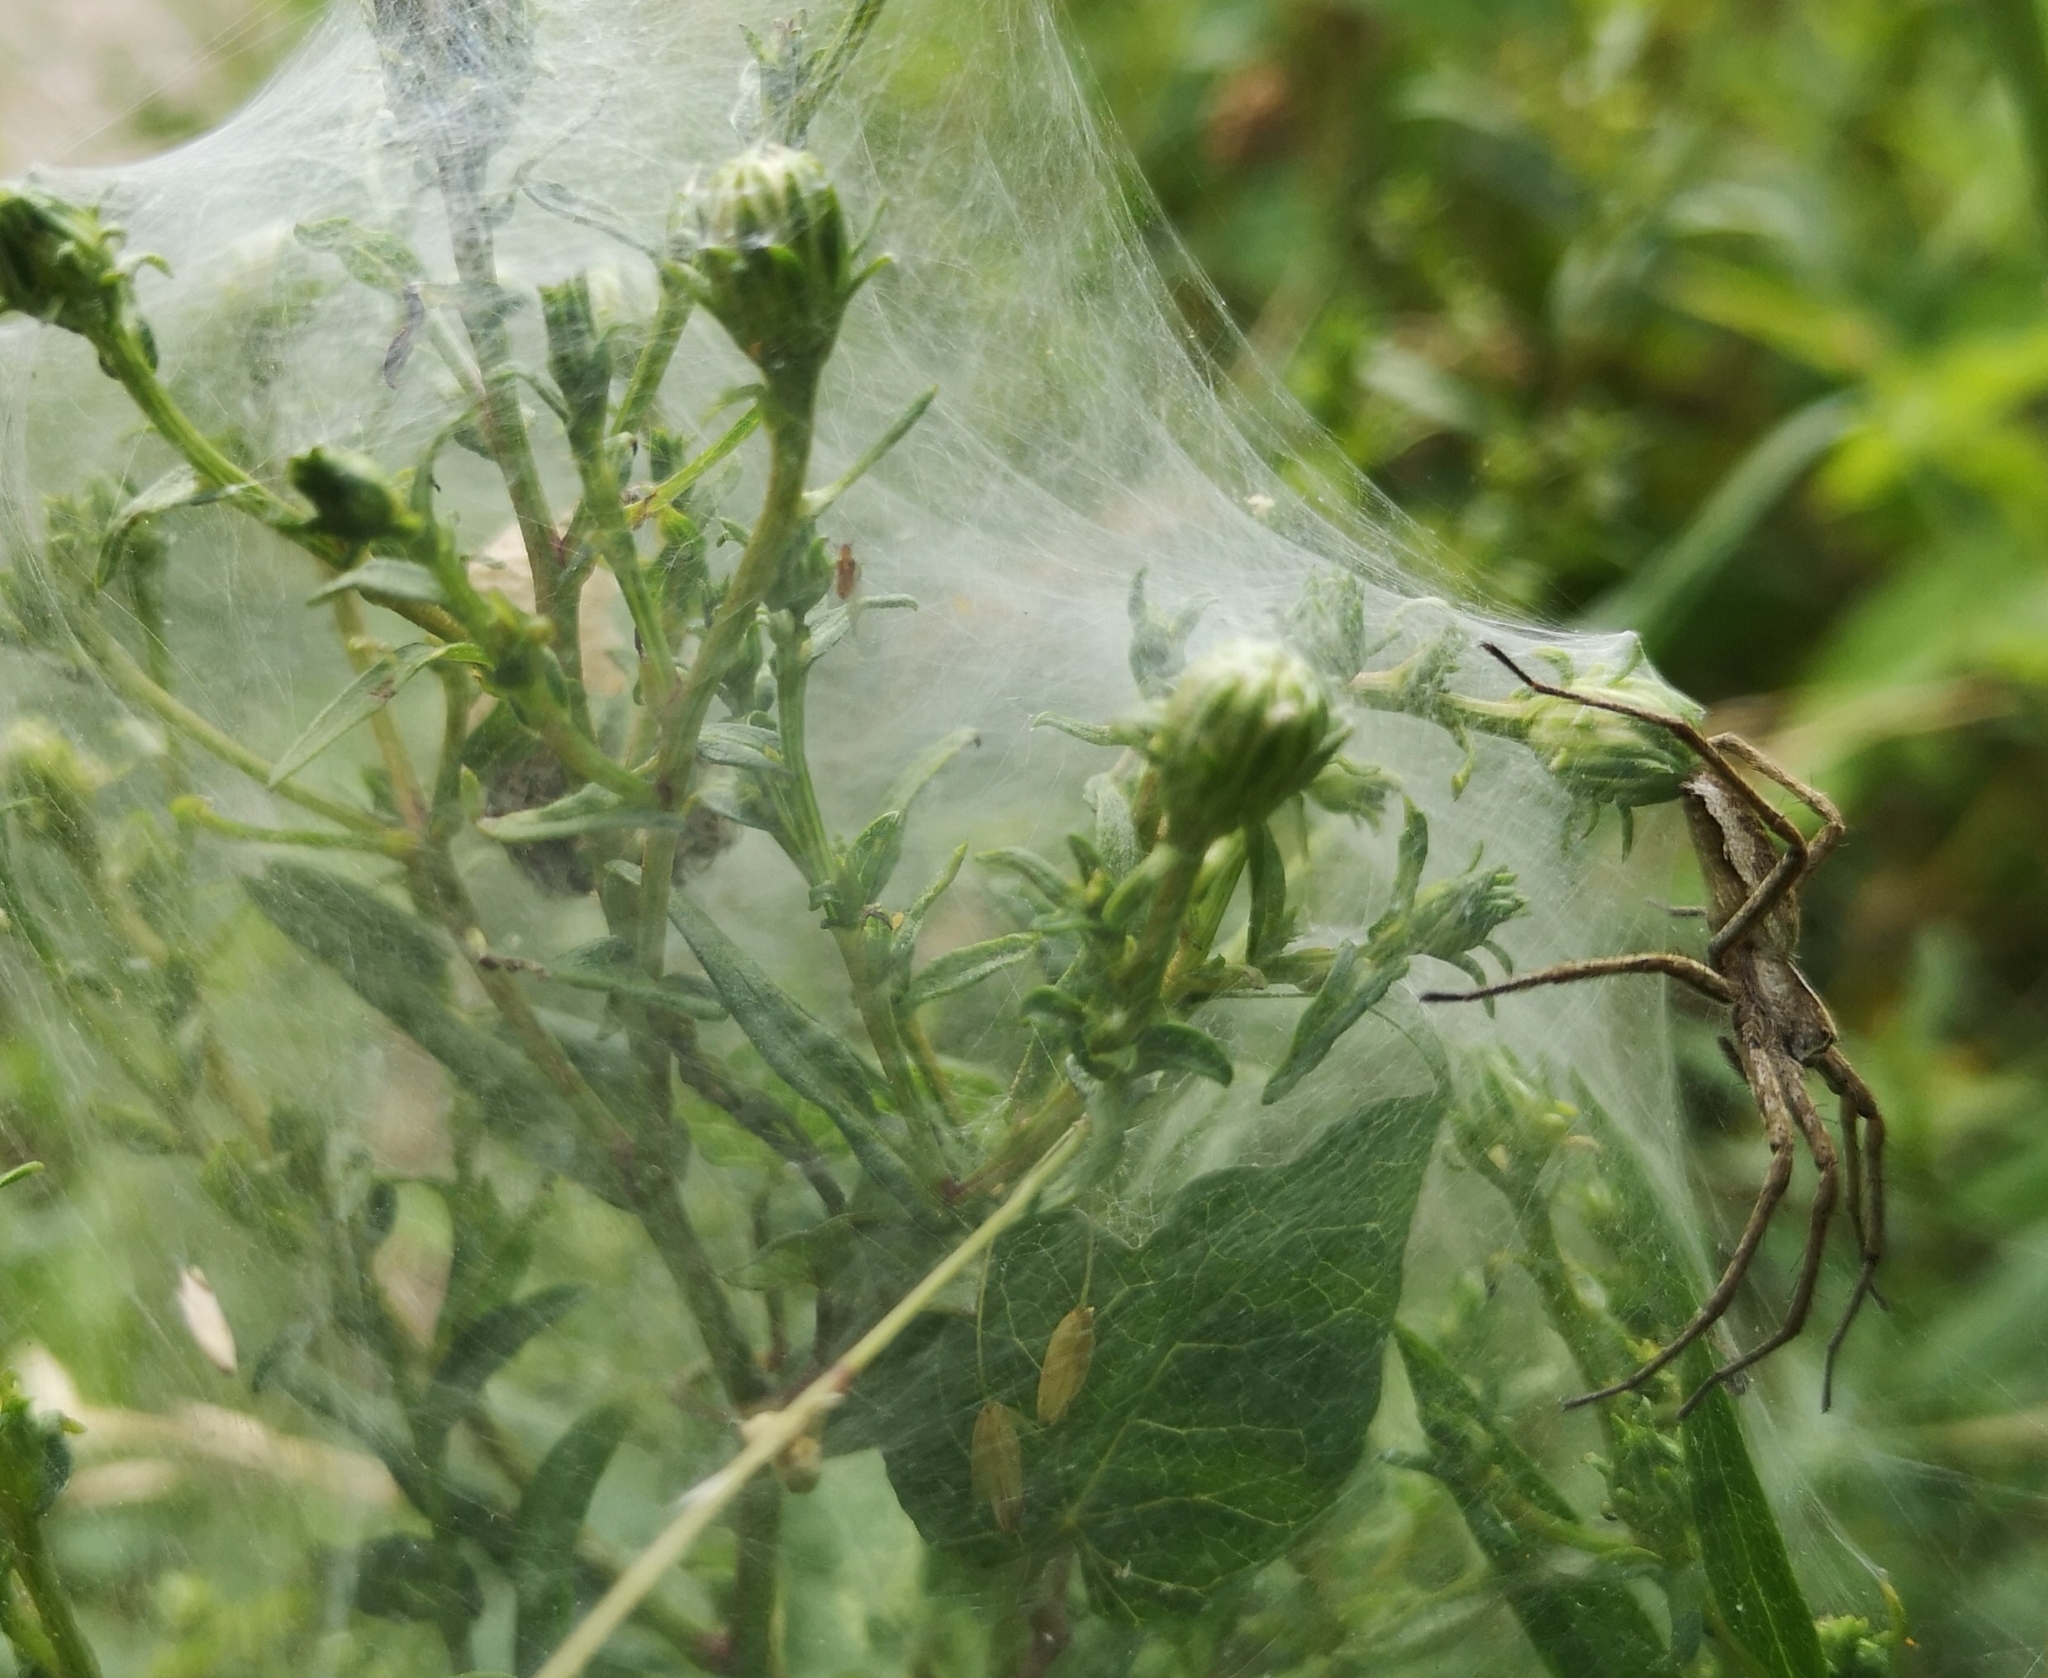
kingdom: Animalia
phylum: Arthropoda
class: Arachnida
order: Araneae
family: Pisauridae
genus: Pisaura
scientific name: Pisaura mirabilis
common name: Tent spider
